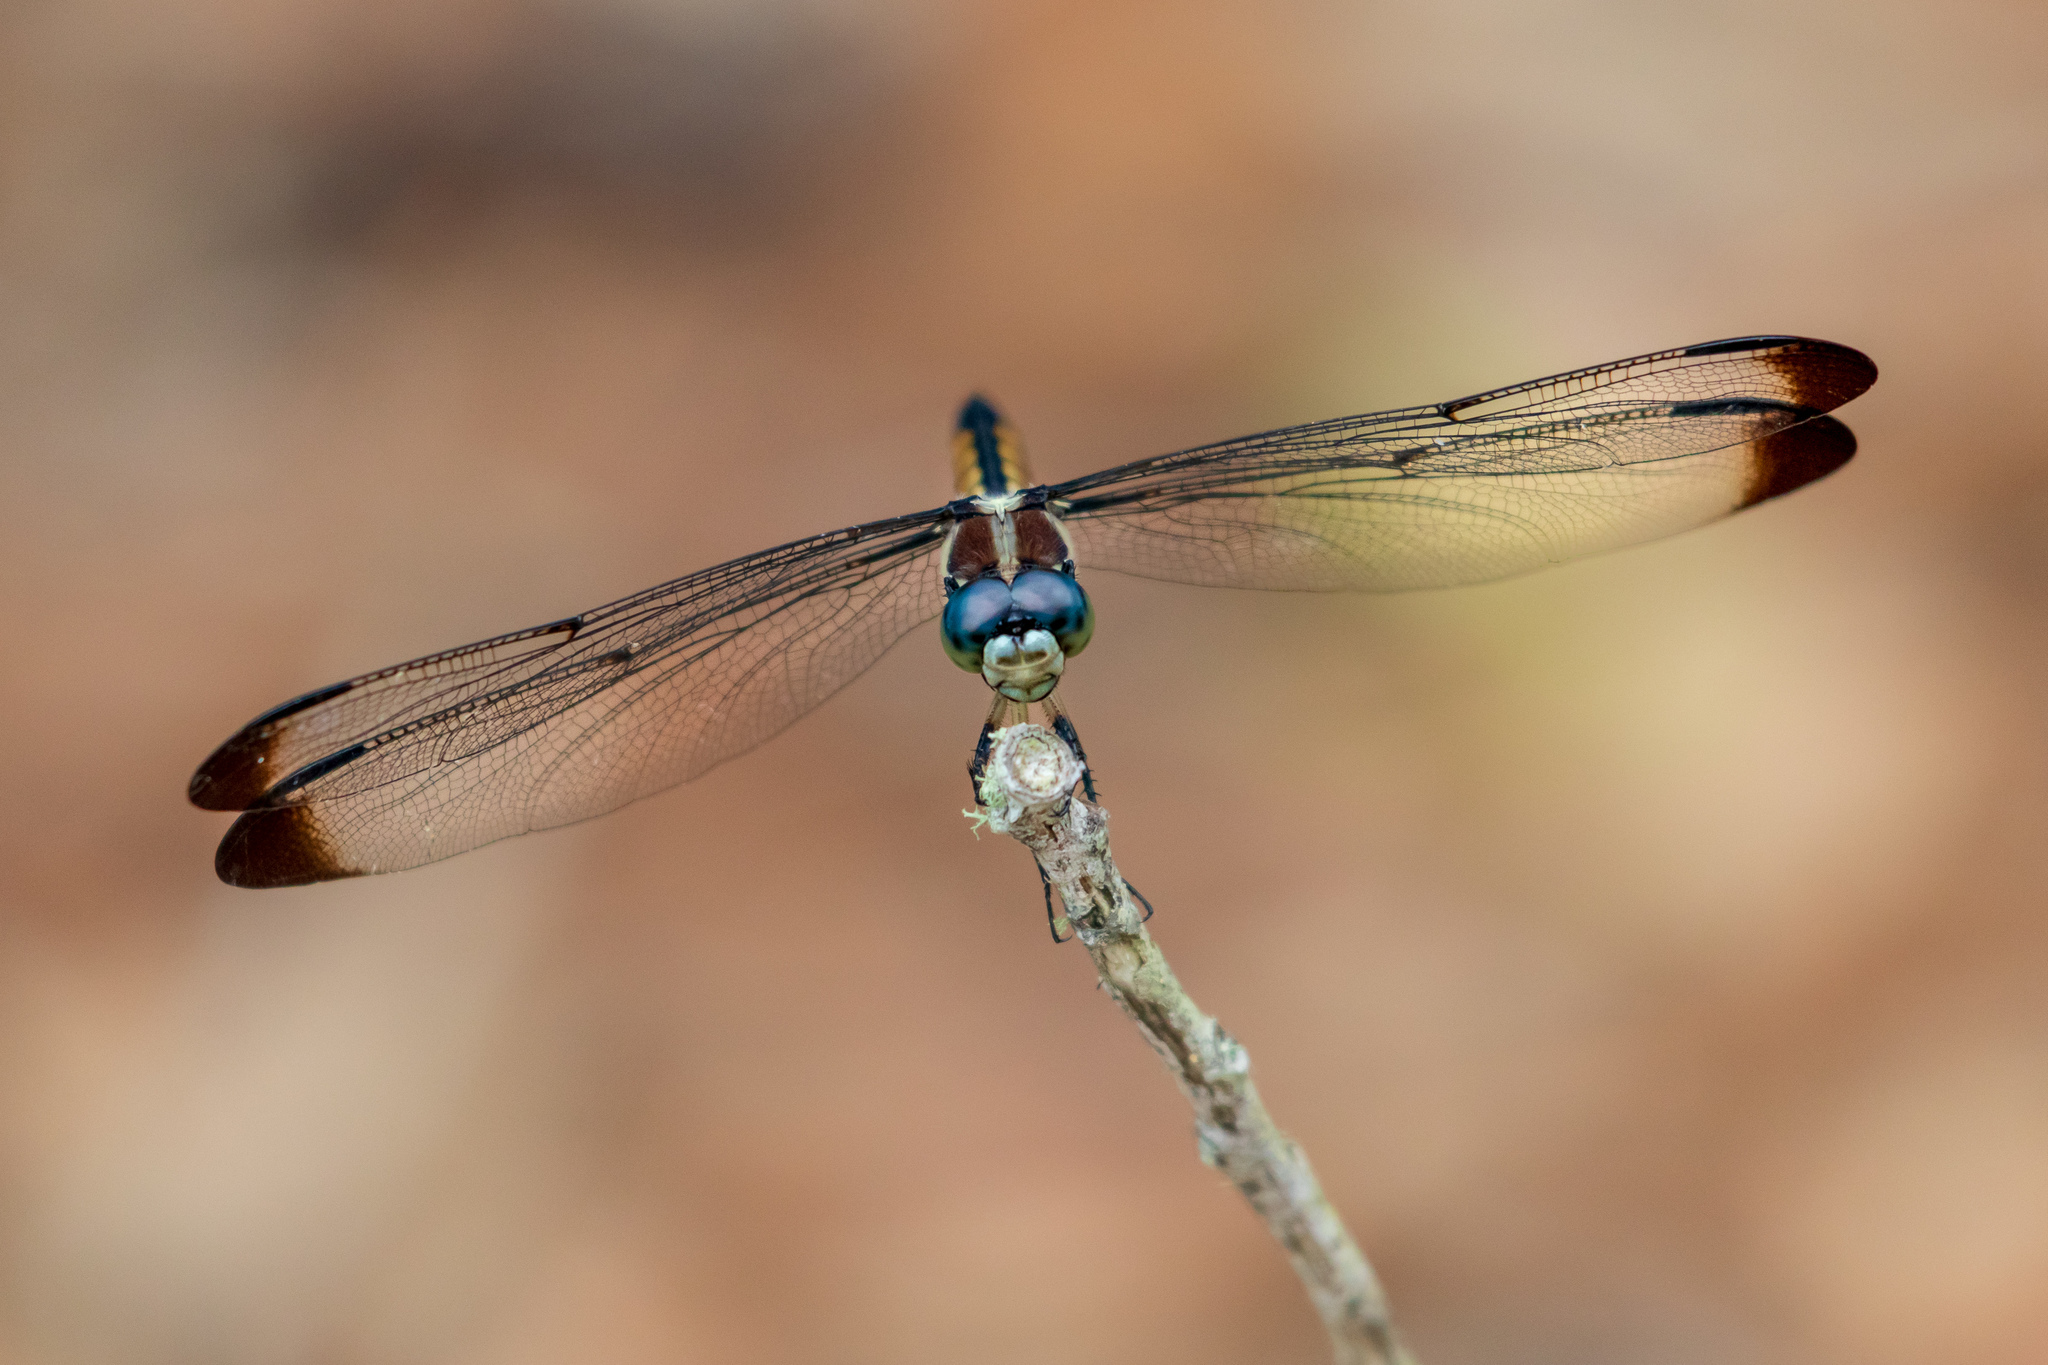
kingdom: Animalia
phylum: Arthropoda
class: Insecta
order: Odonata
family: Libellulidae
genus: Libellula
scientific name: Libellula vibrans
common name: Great blue skimmer
